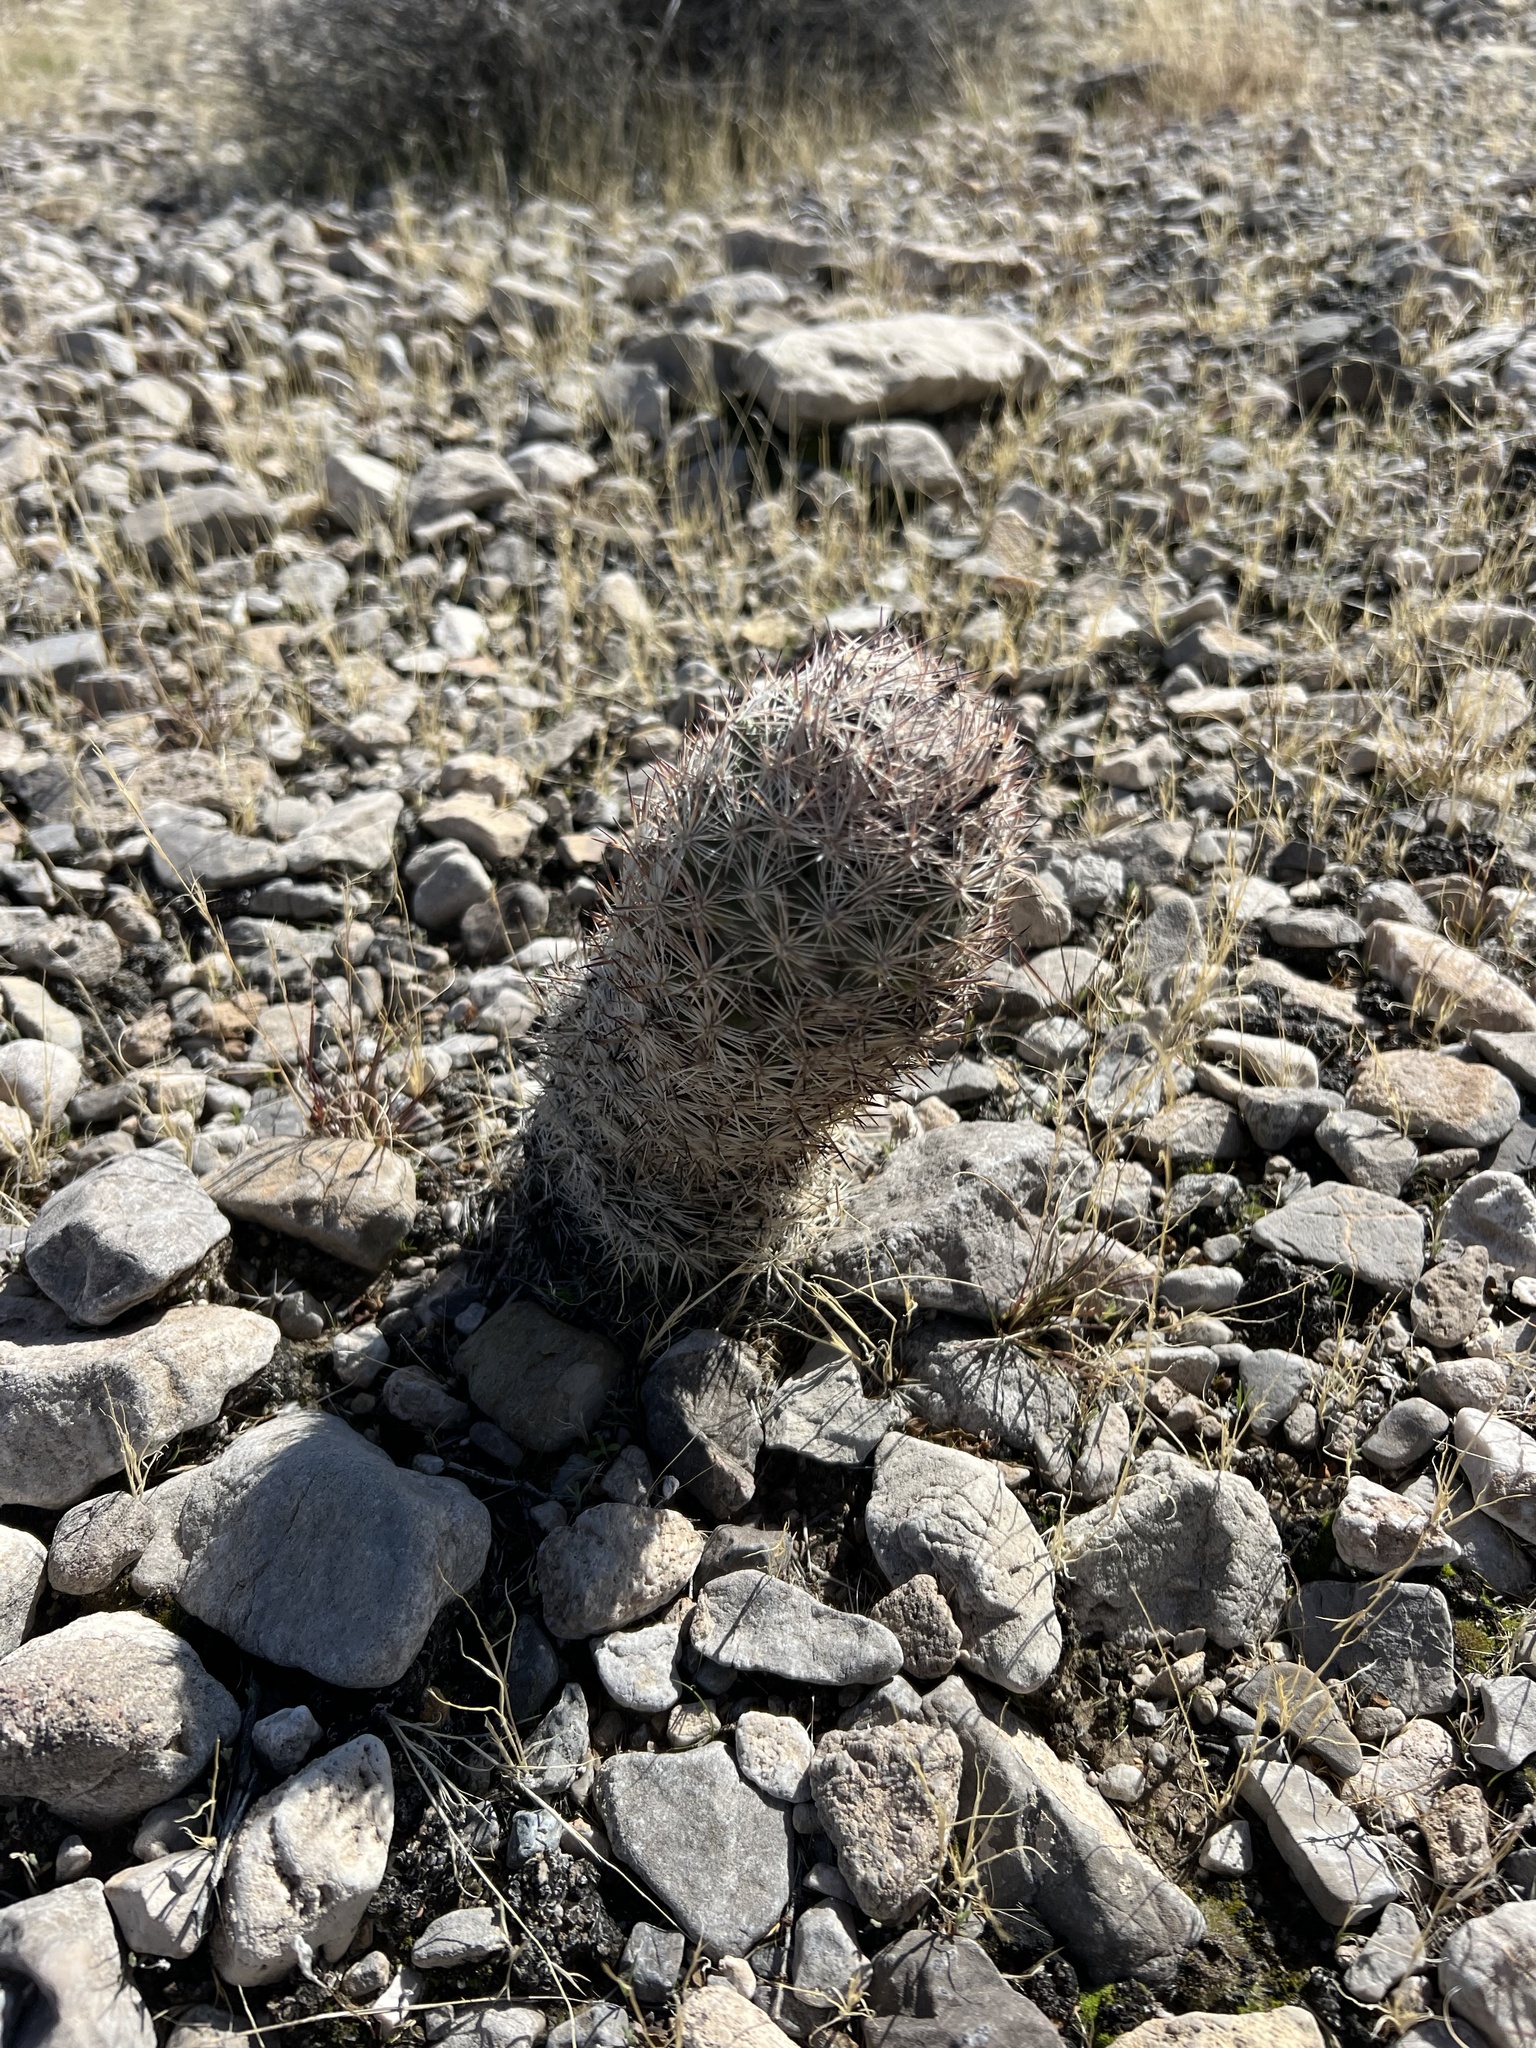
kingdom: Plantae
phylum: Tracheophyta
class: Magnoliopsida
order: Caryophyllales
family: Cactaceae
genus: Pelecyphora
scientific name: Pelecyphora dasyacantha
